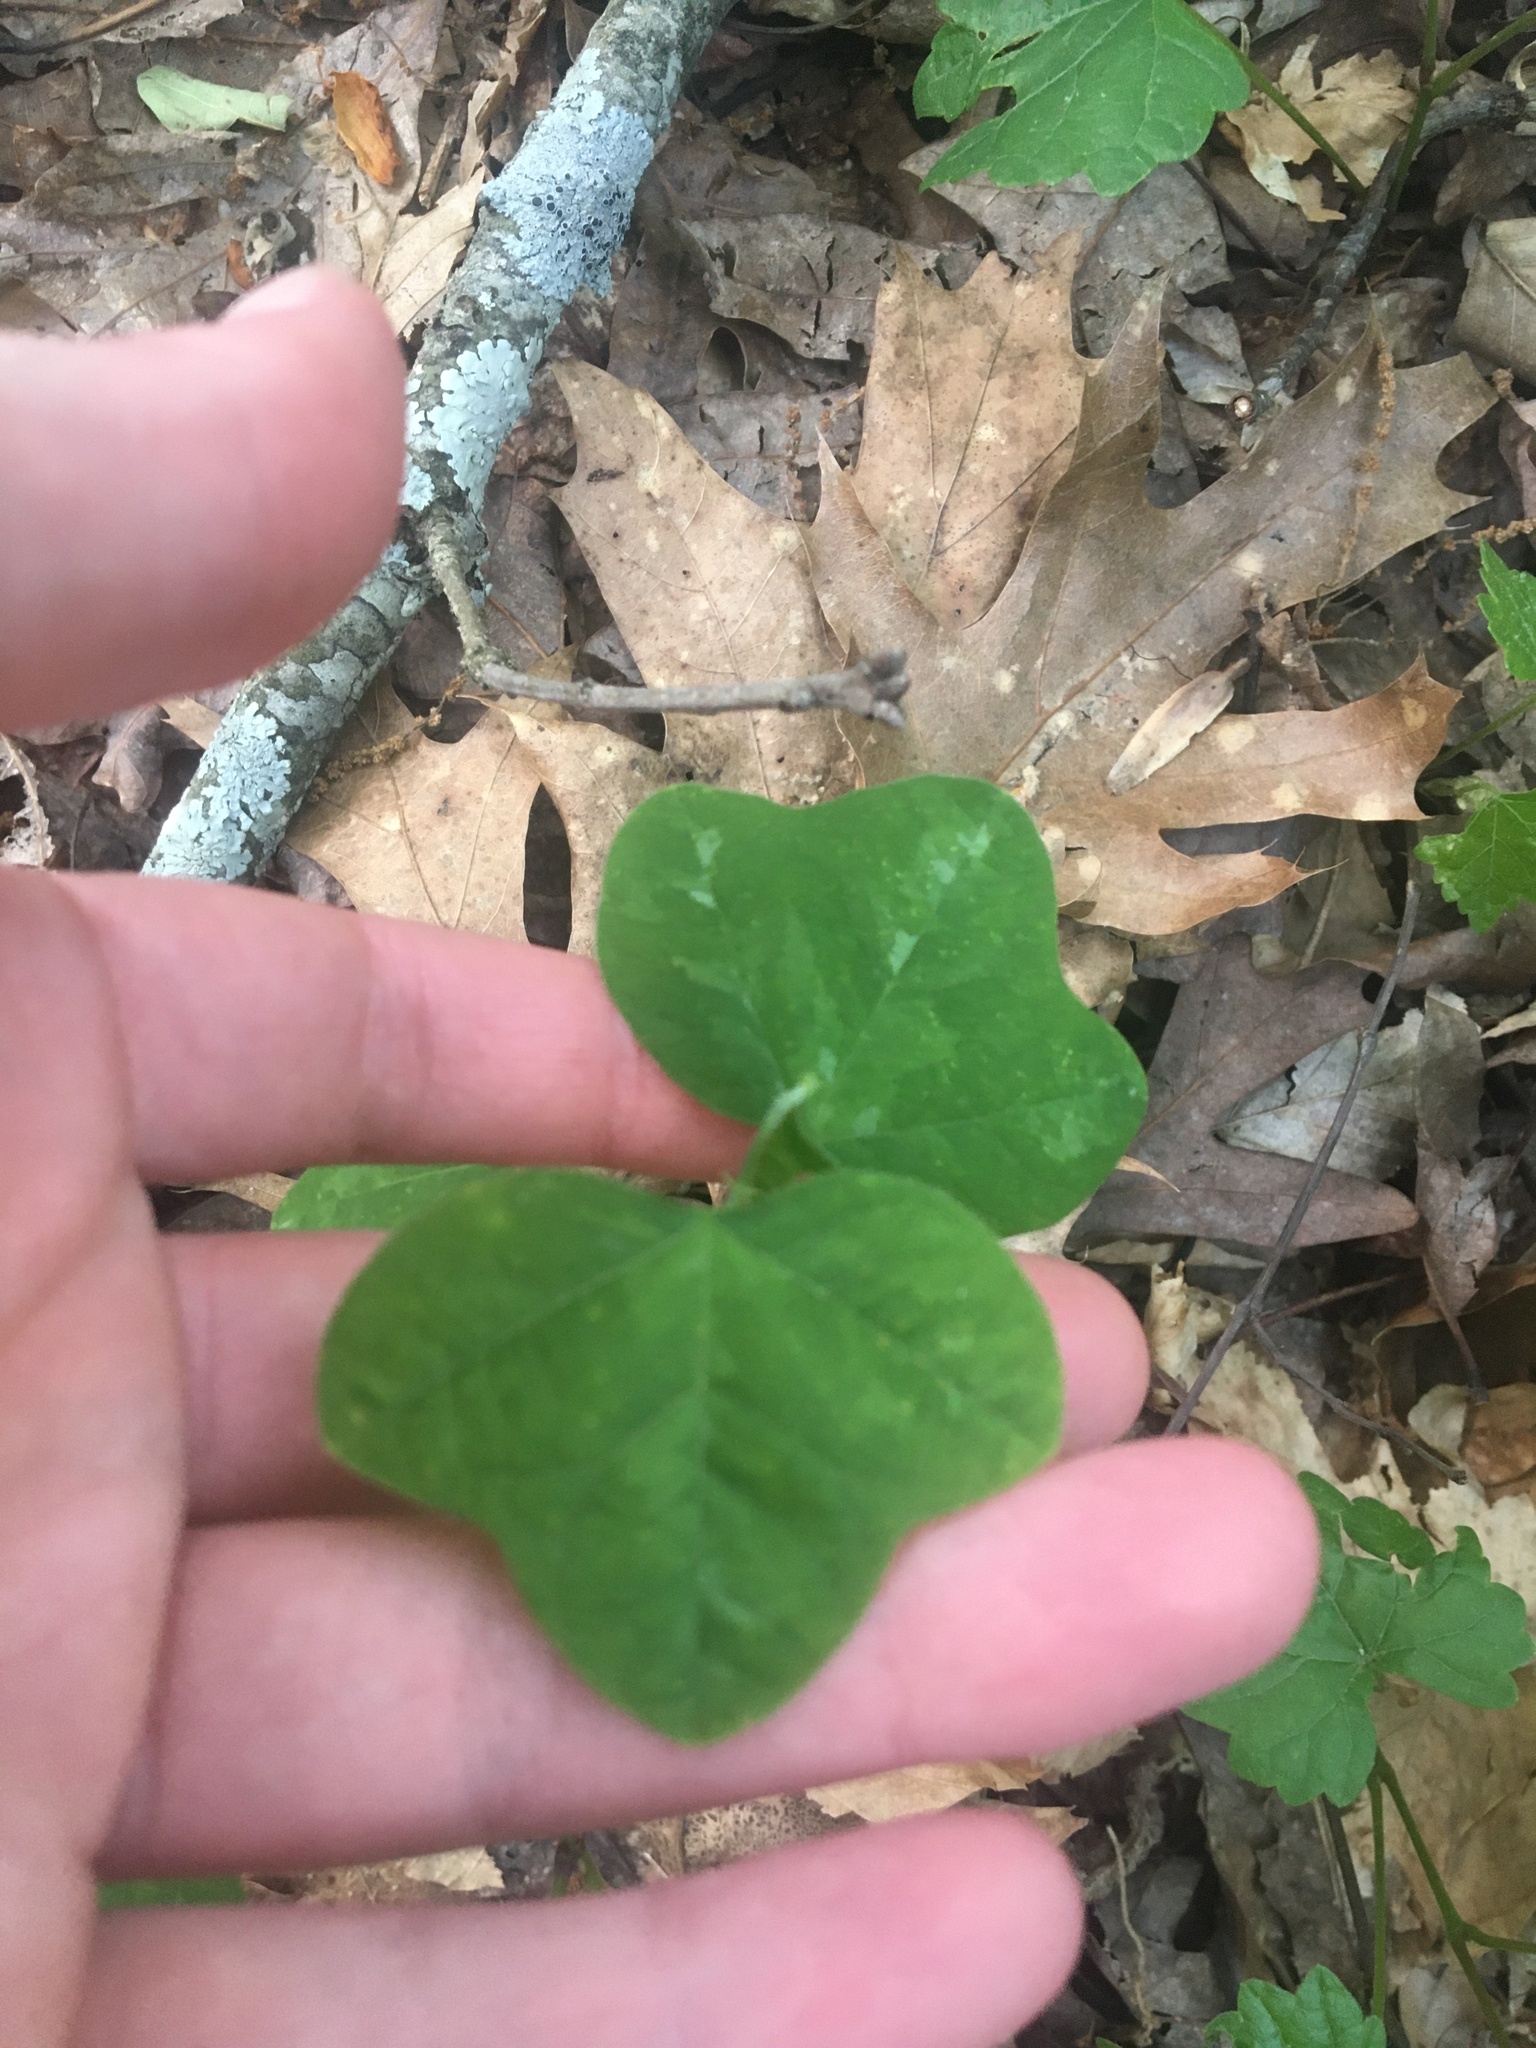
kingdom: Plantae
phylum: Tracheophyta
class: Magnoliopsida
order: Malpighiales
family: Passifloraceae
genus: Passiflora
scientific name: Passiflora lutea
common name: Yellow passionflower
